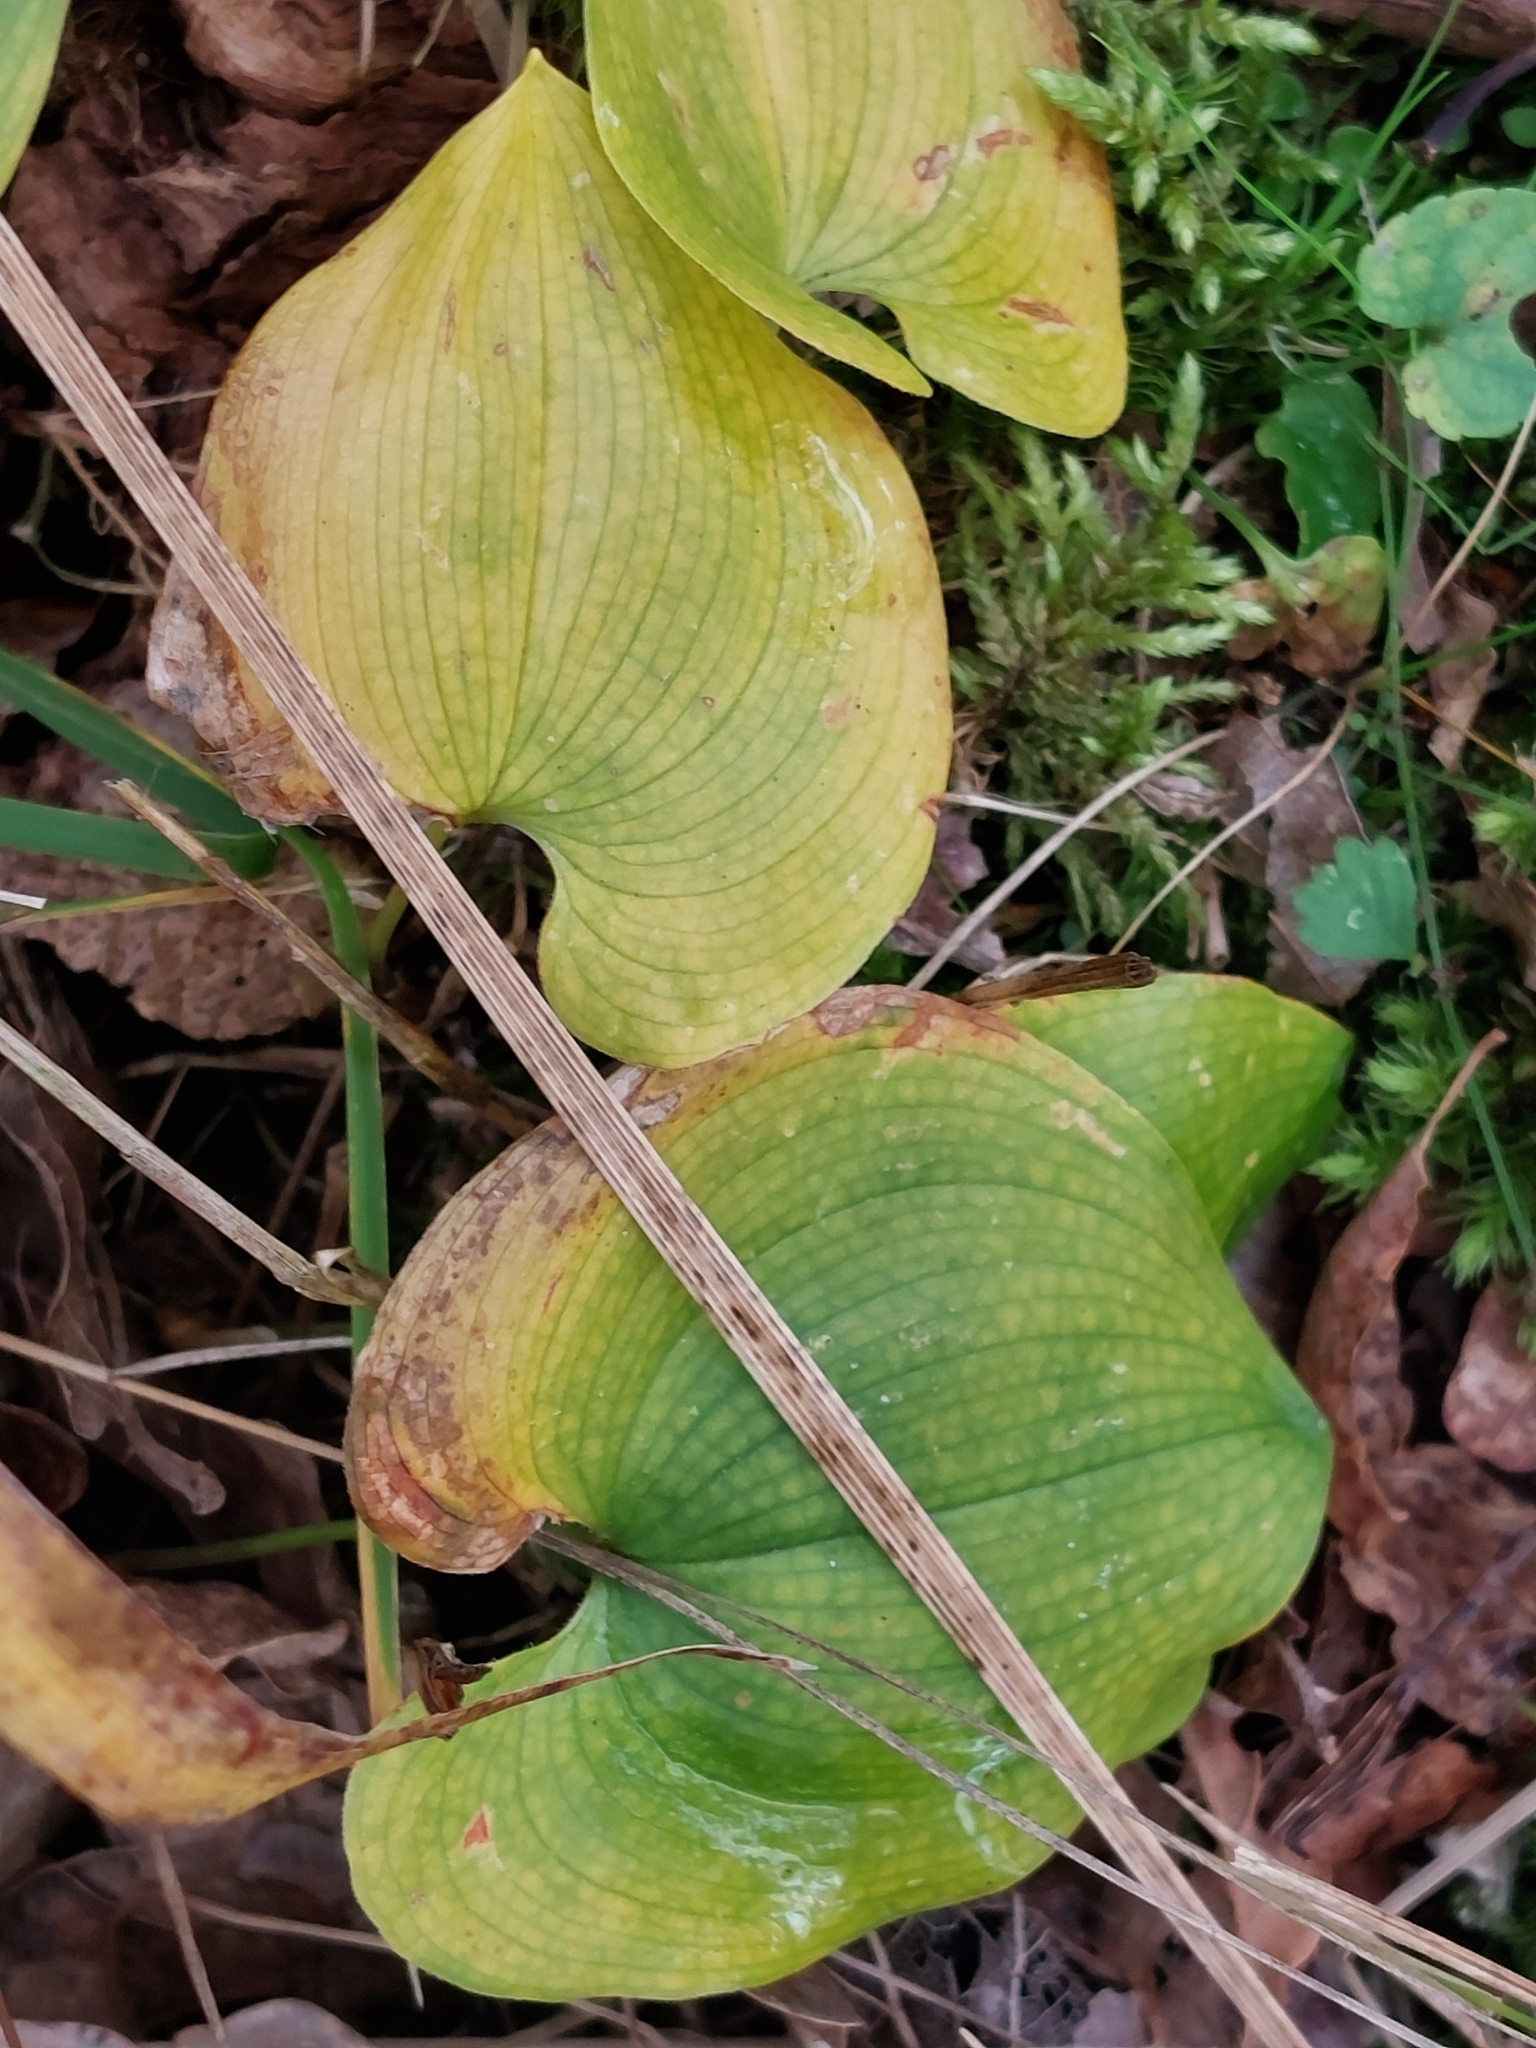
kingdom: Plantae
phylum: Tracheophyta
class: Liliopsida
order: Asparagales
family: Asparagaceae
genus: Maianthemum
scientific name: Maianthemum bifolium
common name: May lily
